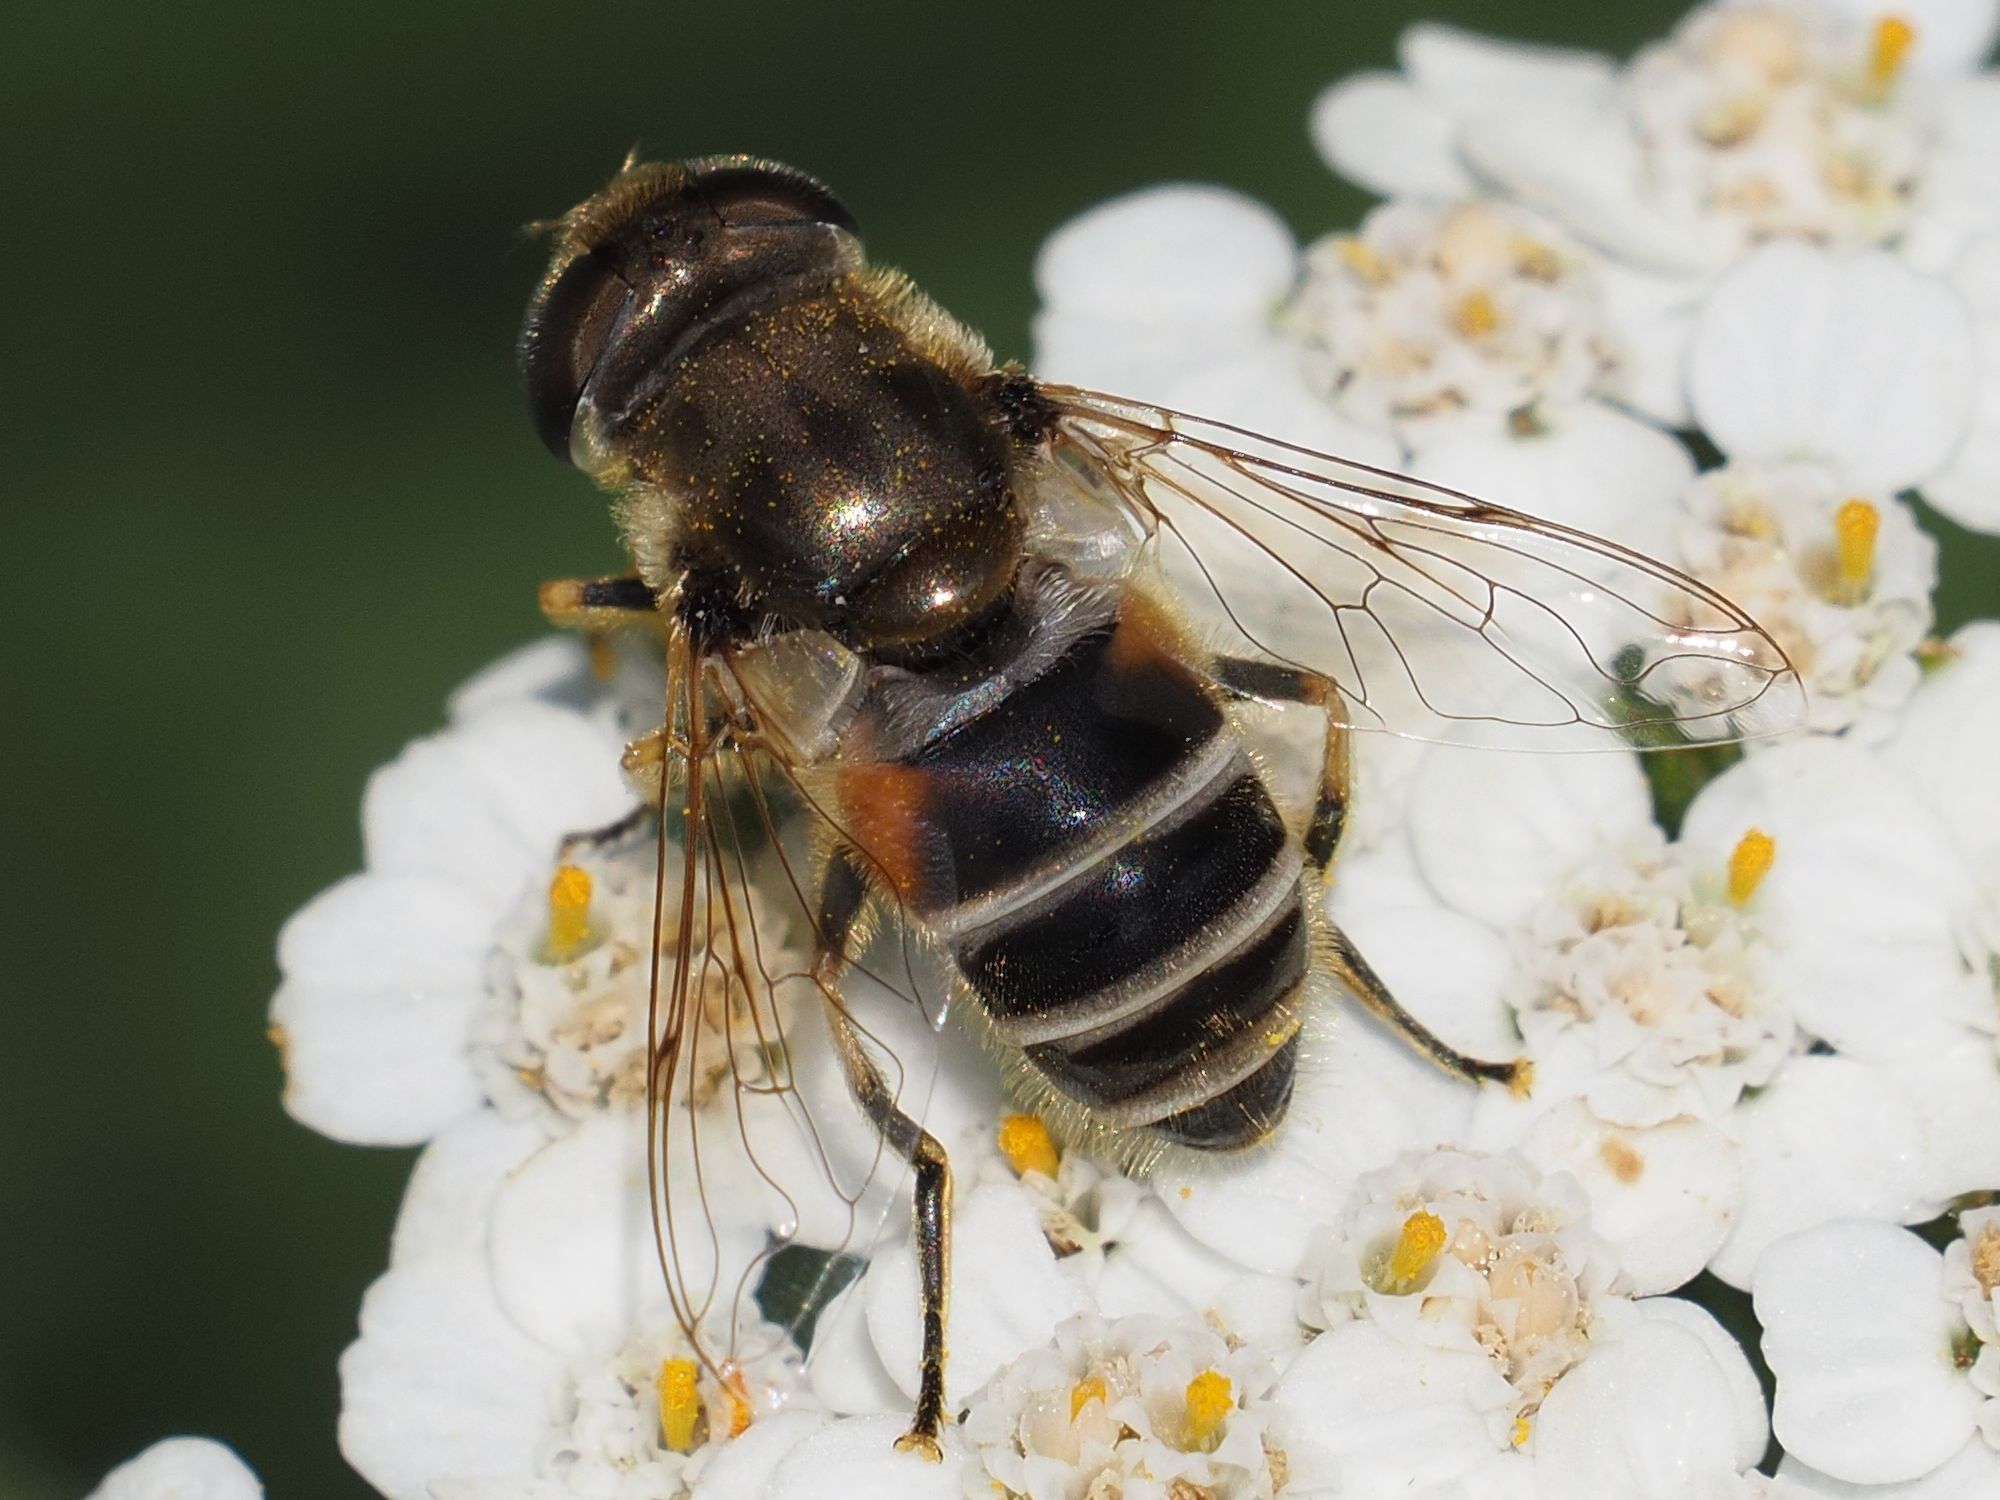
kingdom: Animalia
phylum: Arthropoda
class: Insecta
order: Diptera
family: Syrphidae
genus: Eristalis
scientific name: Eristalis arbustorum
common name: Hover fly
